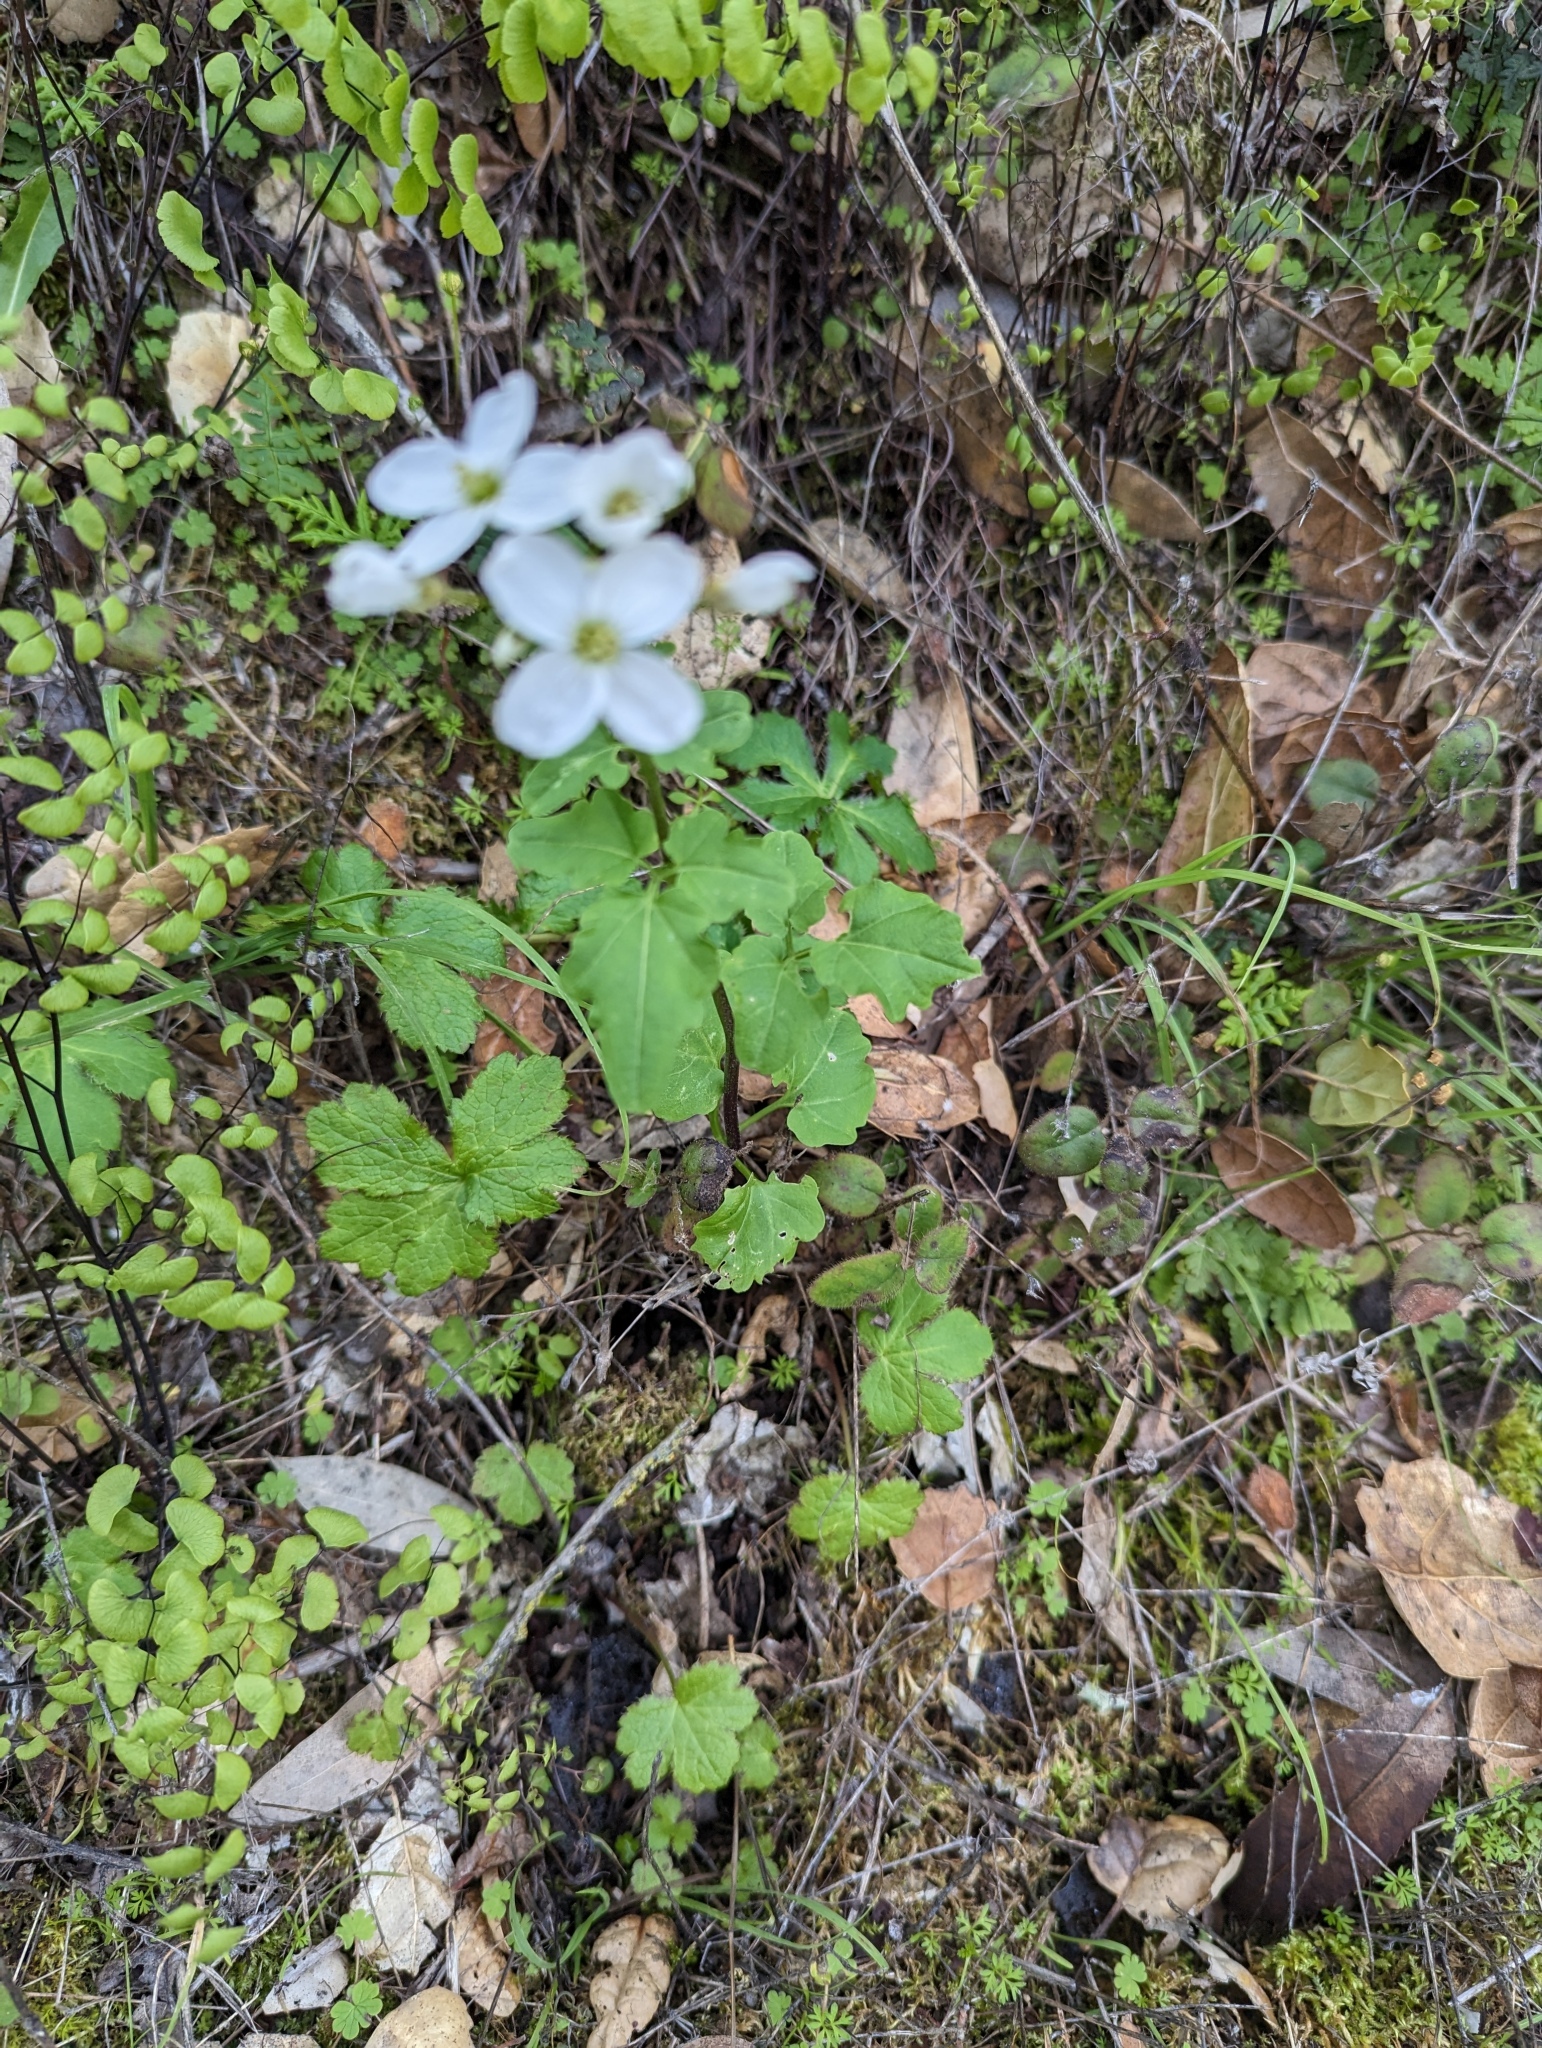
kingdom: Plantae
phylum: Tracheophyta
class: Magnoliopsida
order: Brassicales
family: Brassicaceae
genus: Cardamine
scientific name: Cardamine californica
